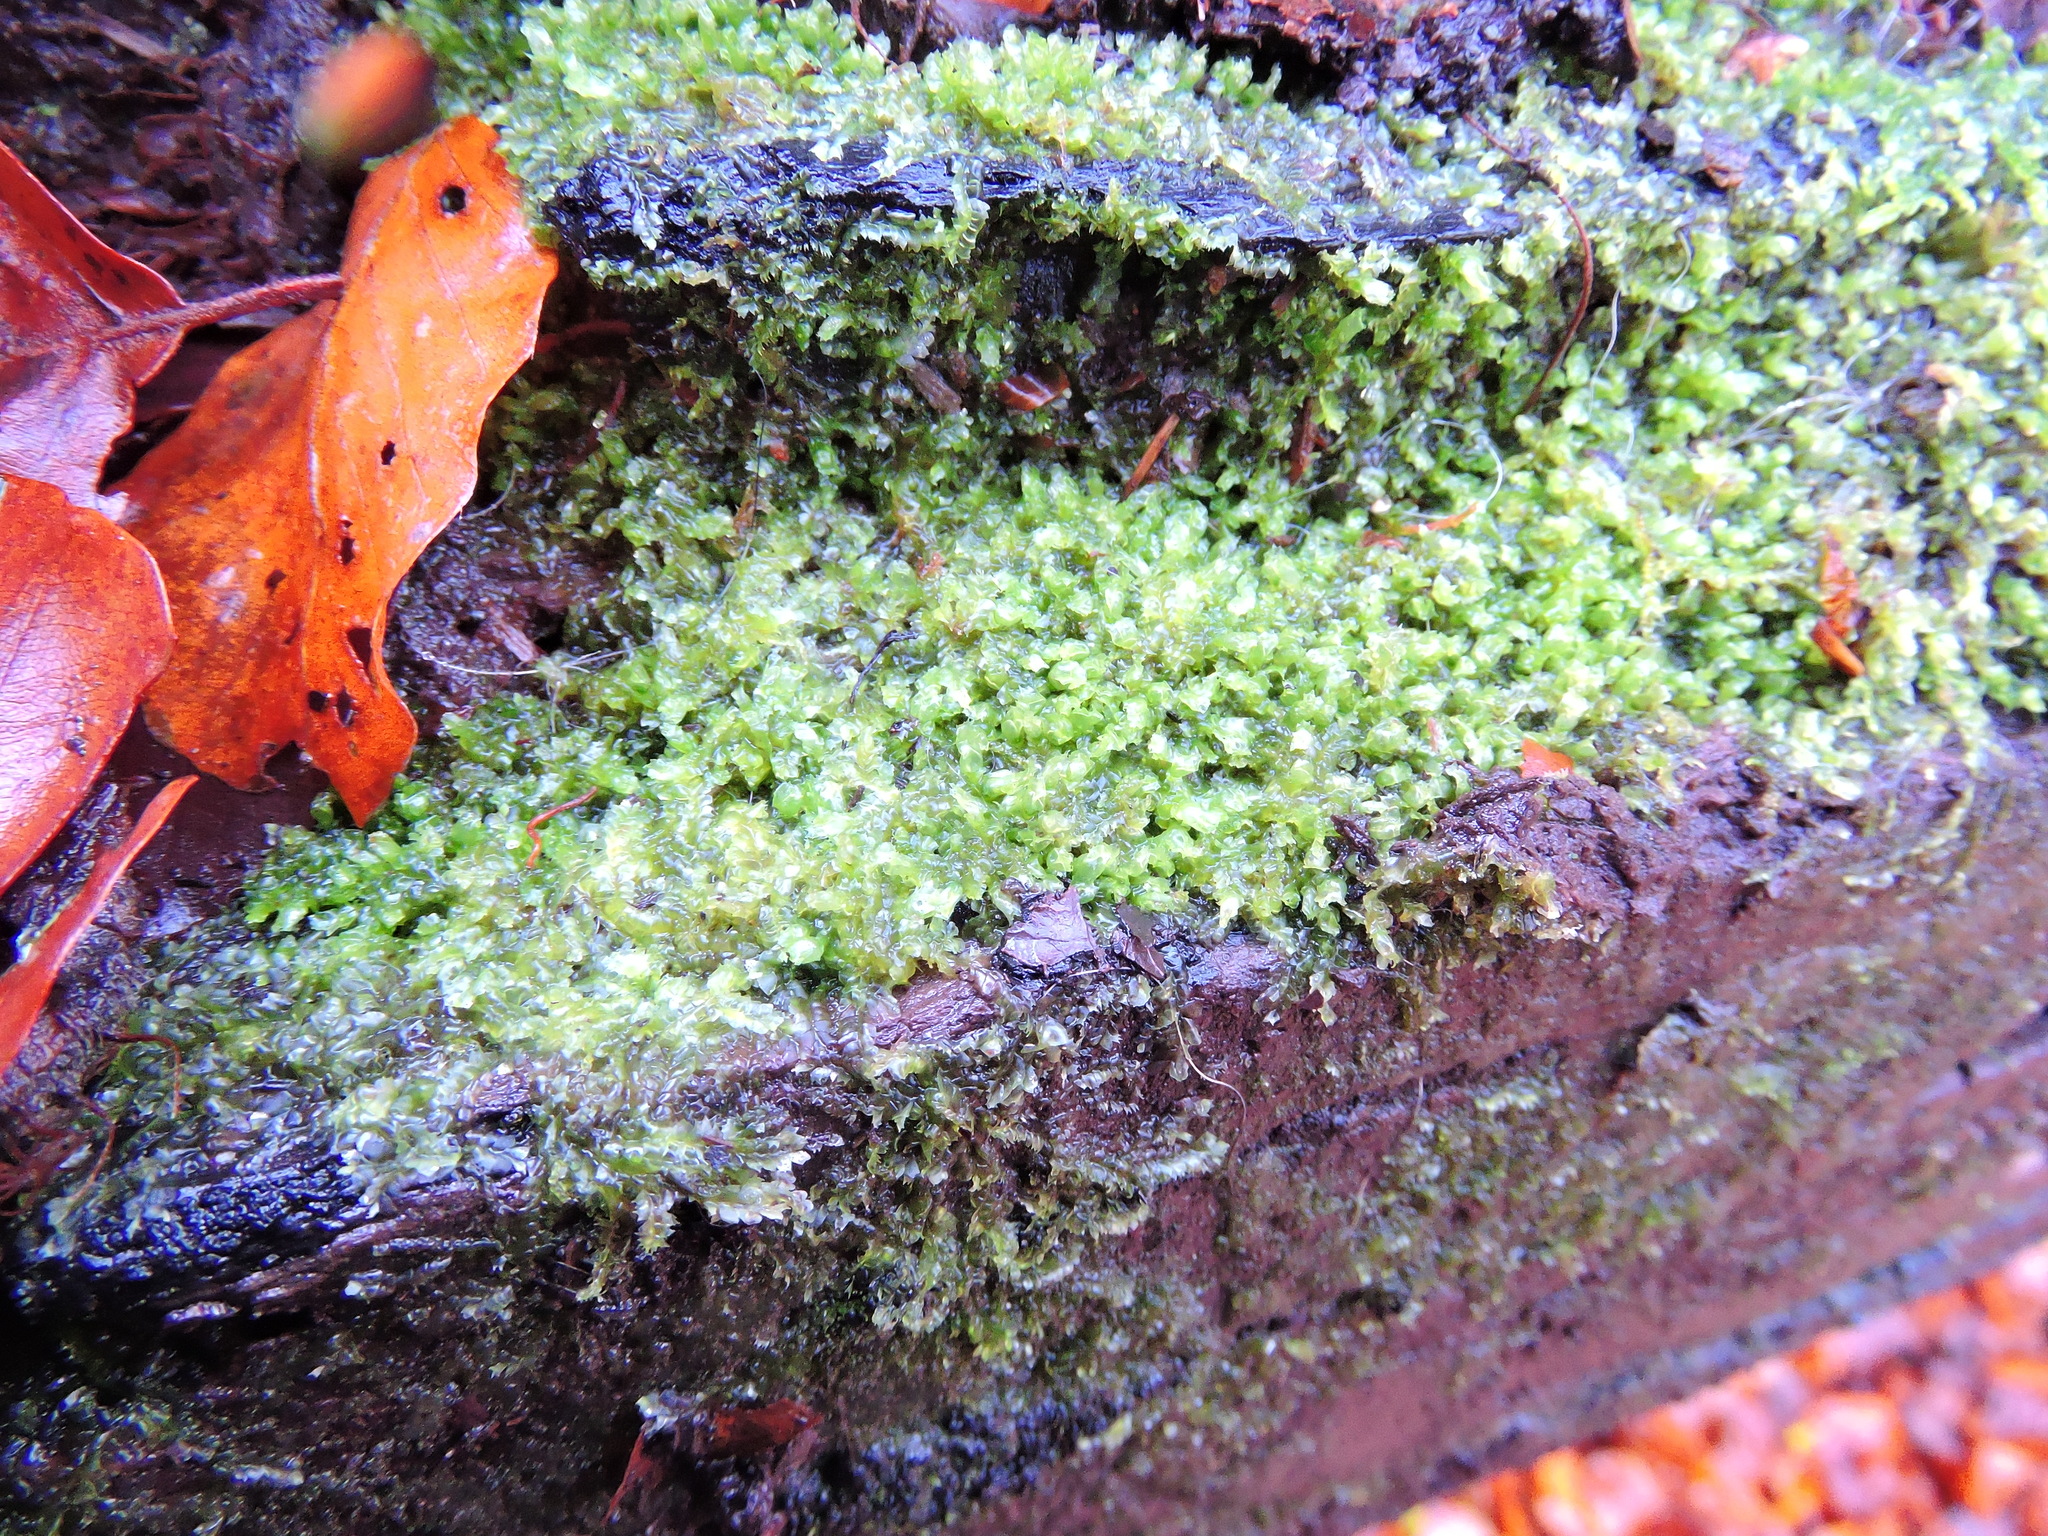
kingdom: Plantae
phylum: Marchantiophyta
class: Jungermanniopsida
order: Jungermanniales
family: Lophocoleaceae
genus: Lophocolea
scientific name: Lophocolea heterophylla
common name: Variable-leaved crestwort
